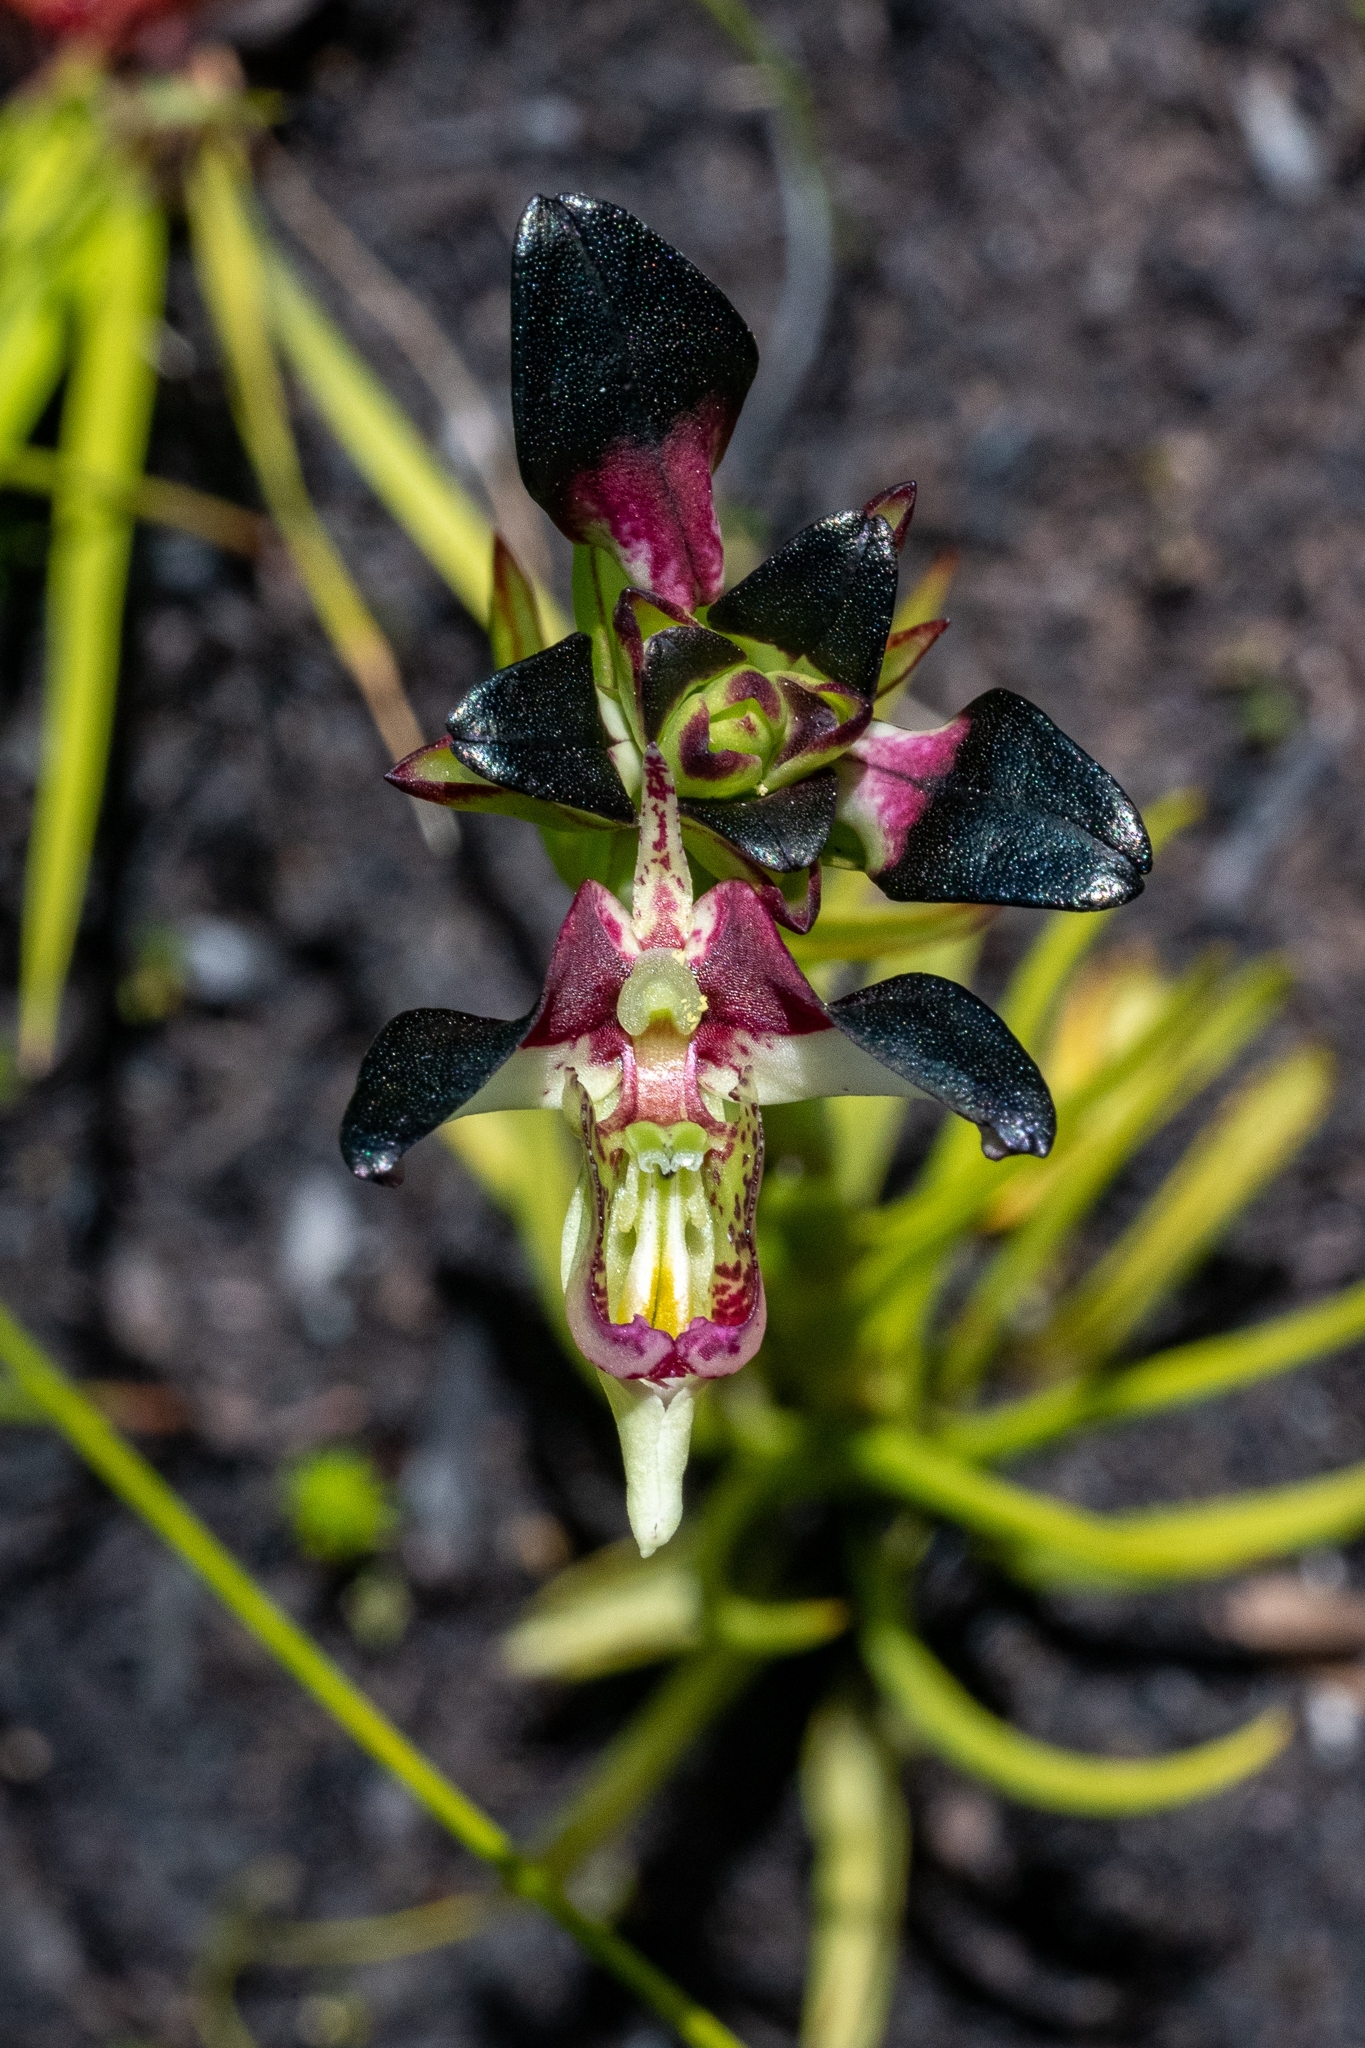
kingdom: Plantae
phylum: Tracheophyta
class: Liliopsida
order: Asparagales
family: Orchidaceae
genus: Disa
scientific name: Disa atricapilla
